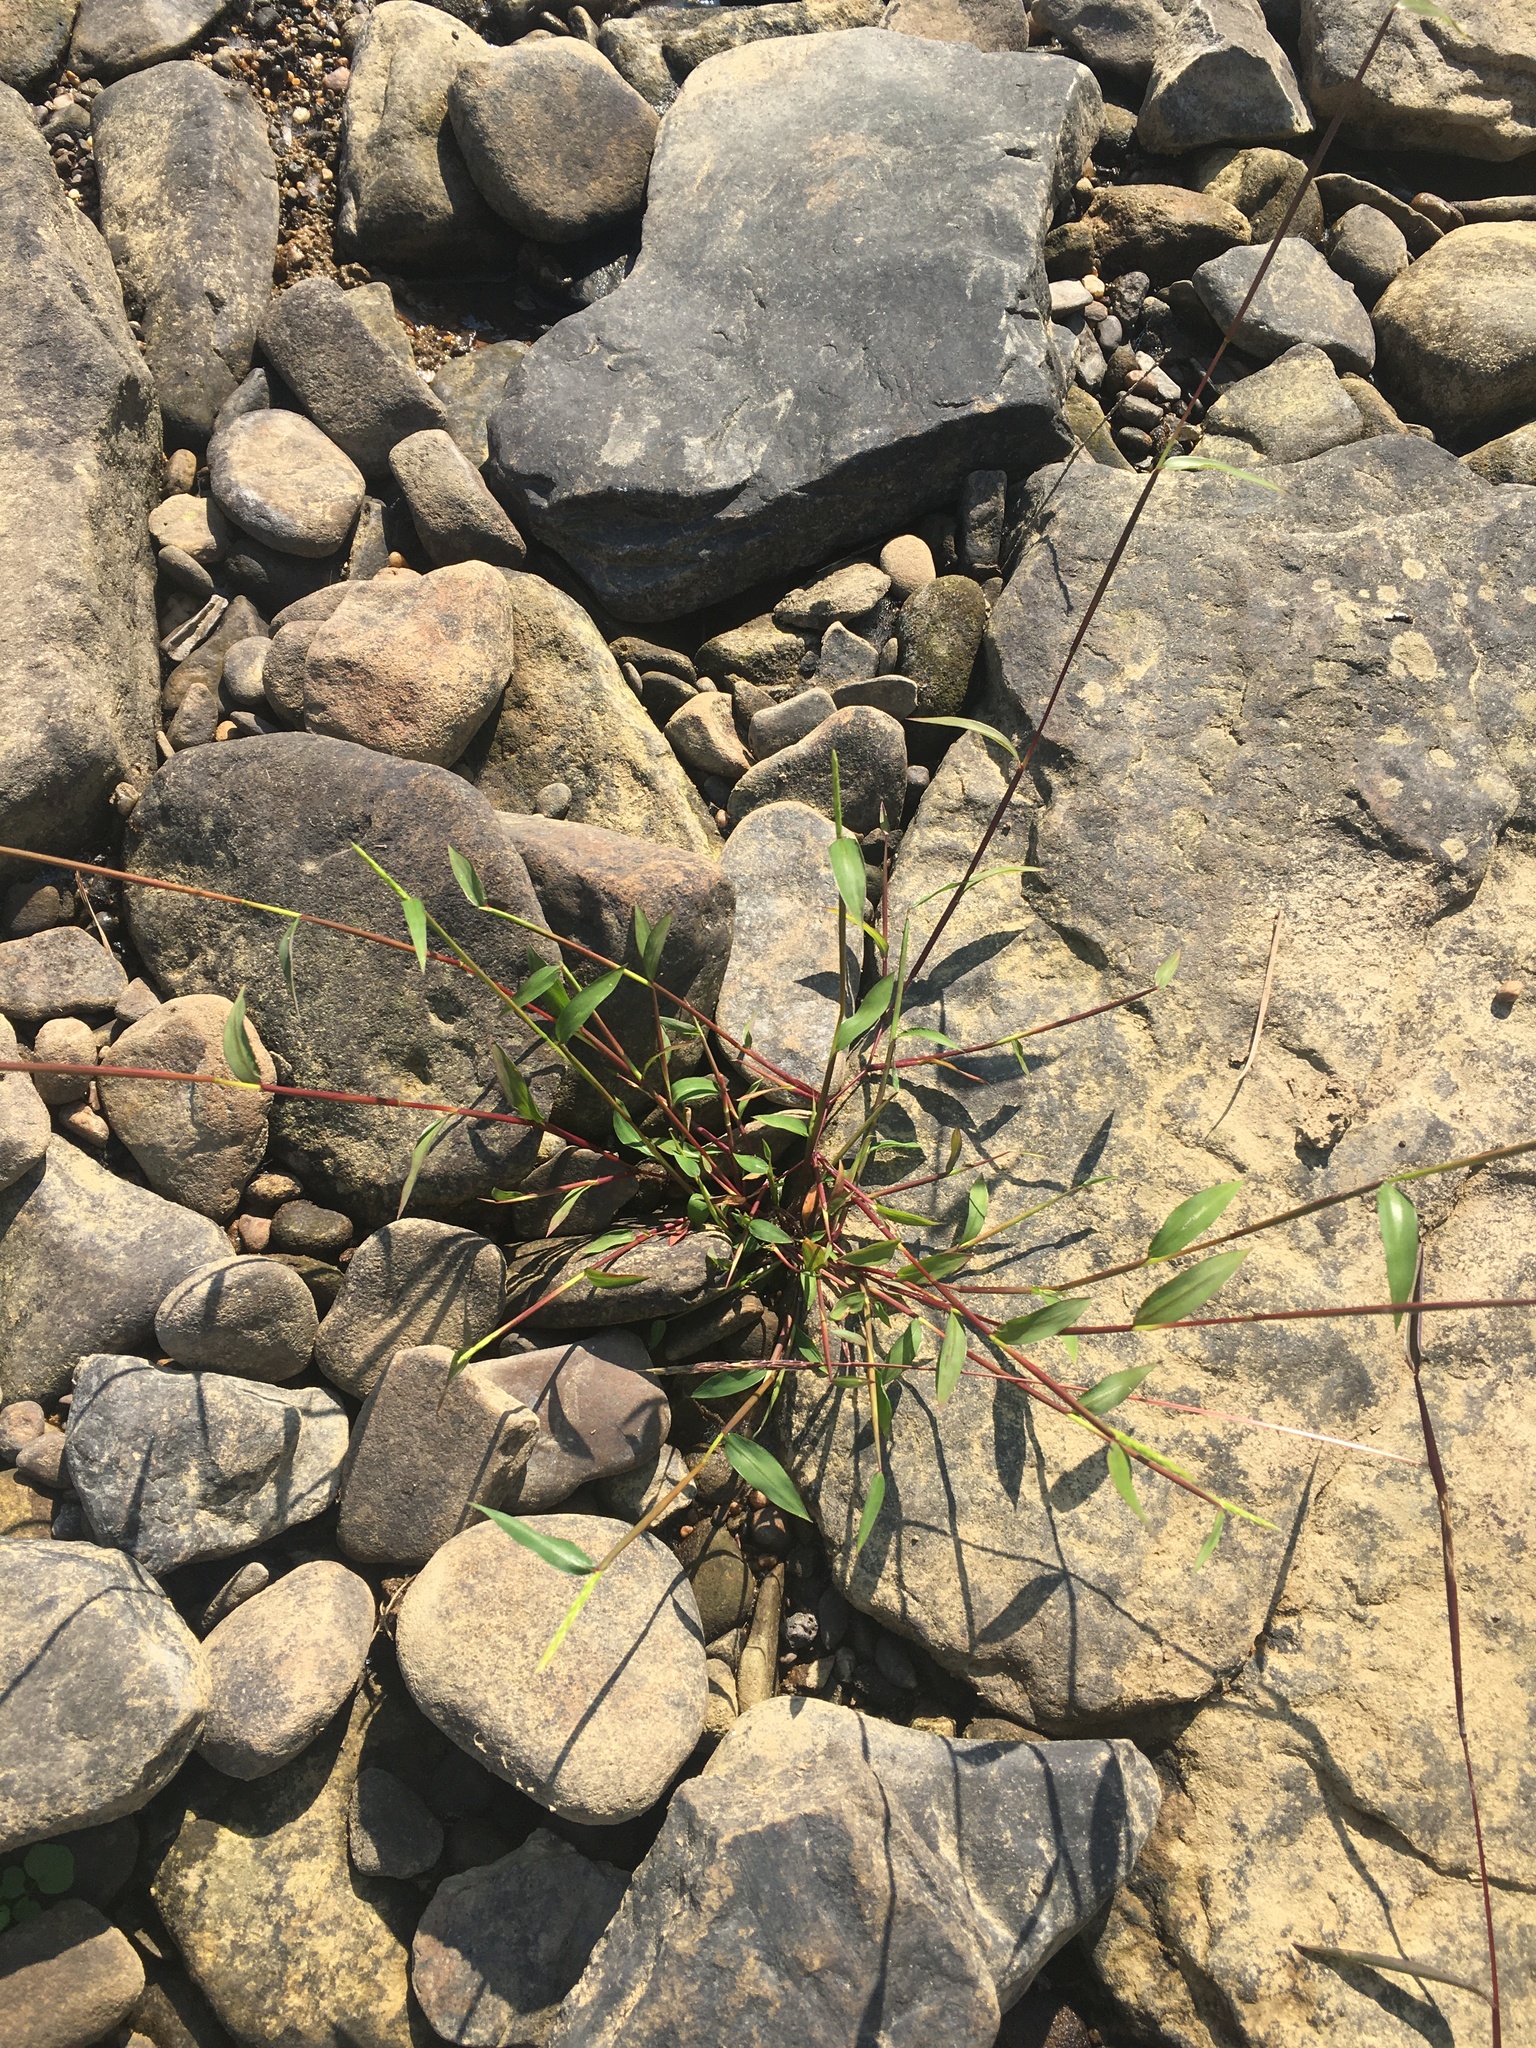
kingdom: Plantae
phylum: Tracheophyta
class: Liliopsida
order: Poales
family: Poaceae
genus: Microstegium
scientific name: Microstegium vimineum
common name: Japanese stiltgrass
